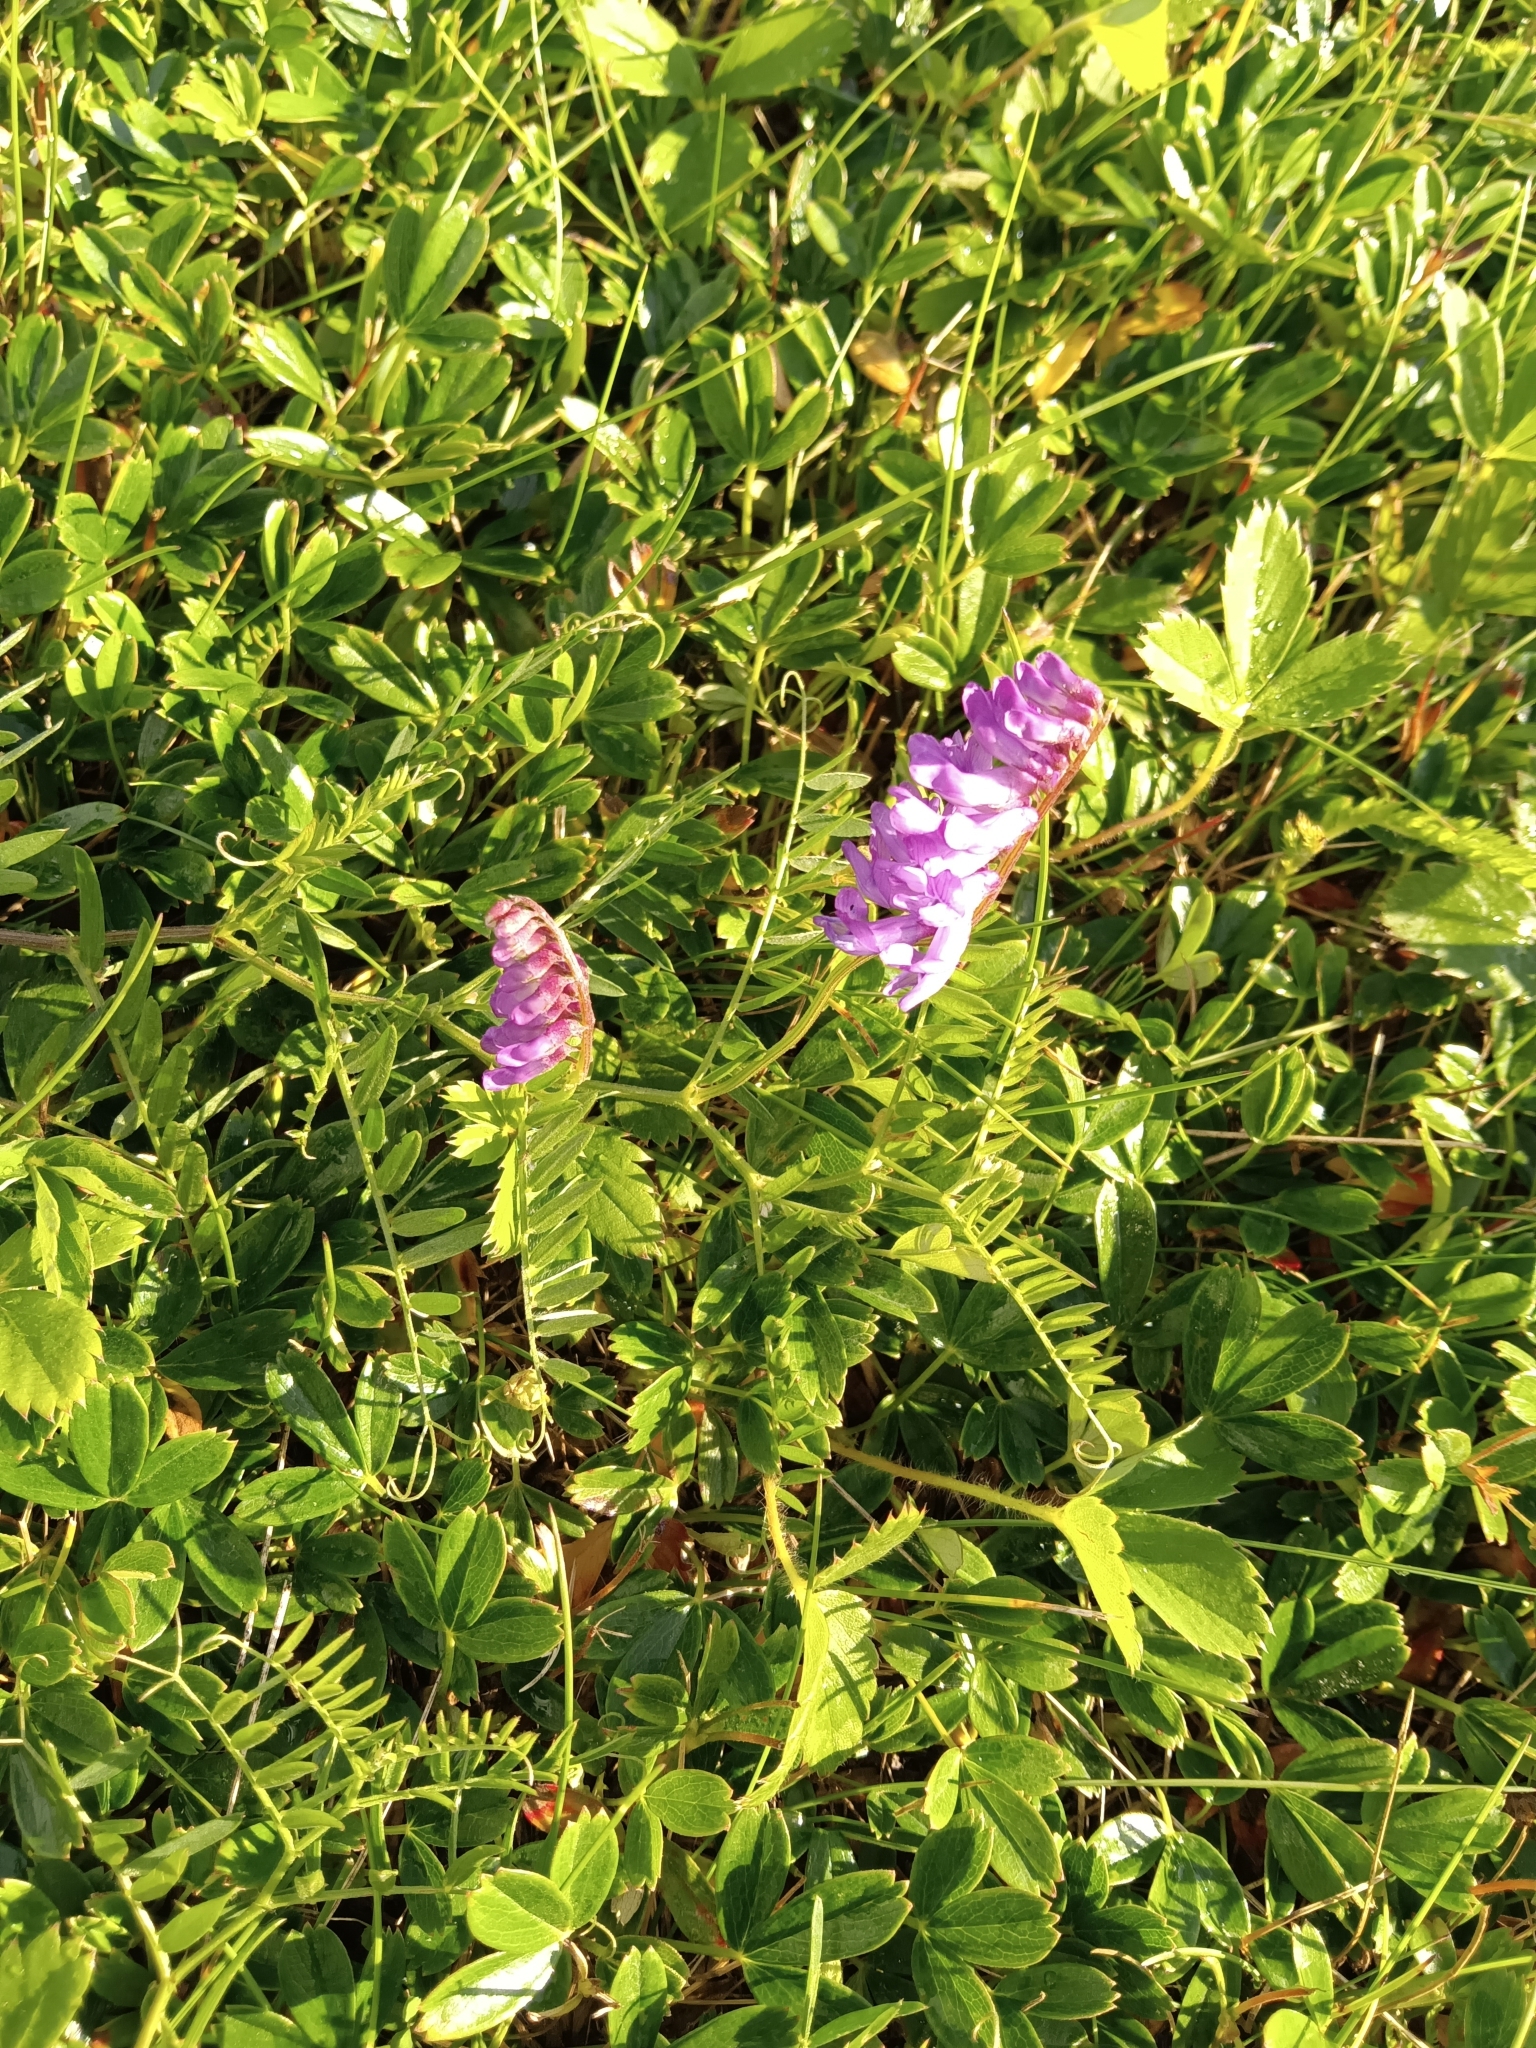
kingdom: Plantae
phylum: Tracheophyta
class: Magnoliopsida
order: Fabales
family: Fabaceae
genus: Vicia
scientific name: Vicia cracca
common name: Bird vetch
